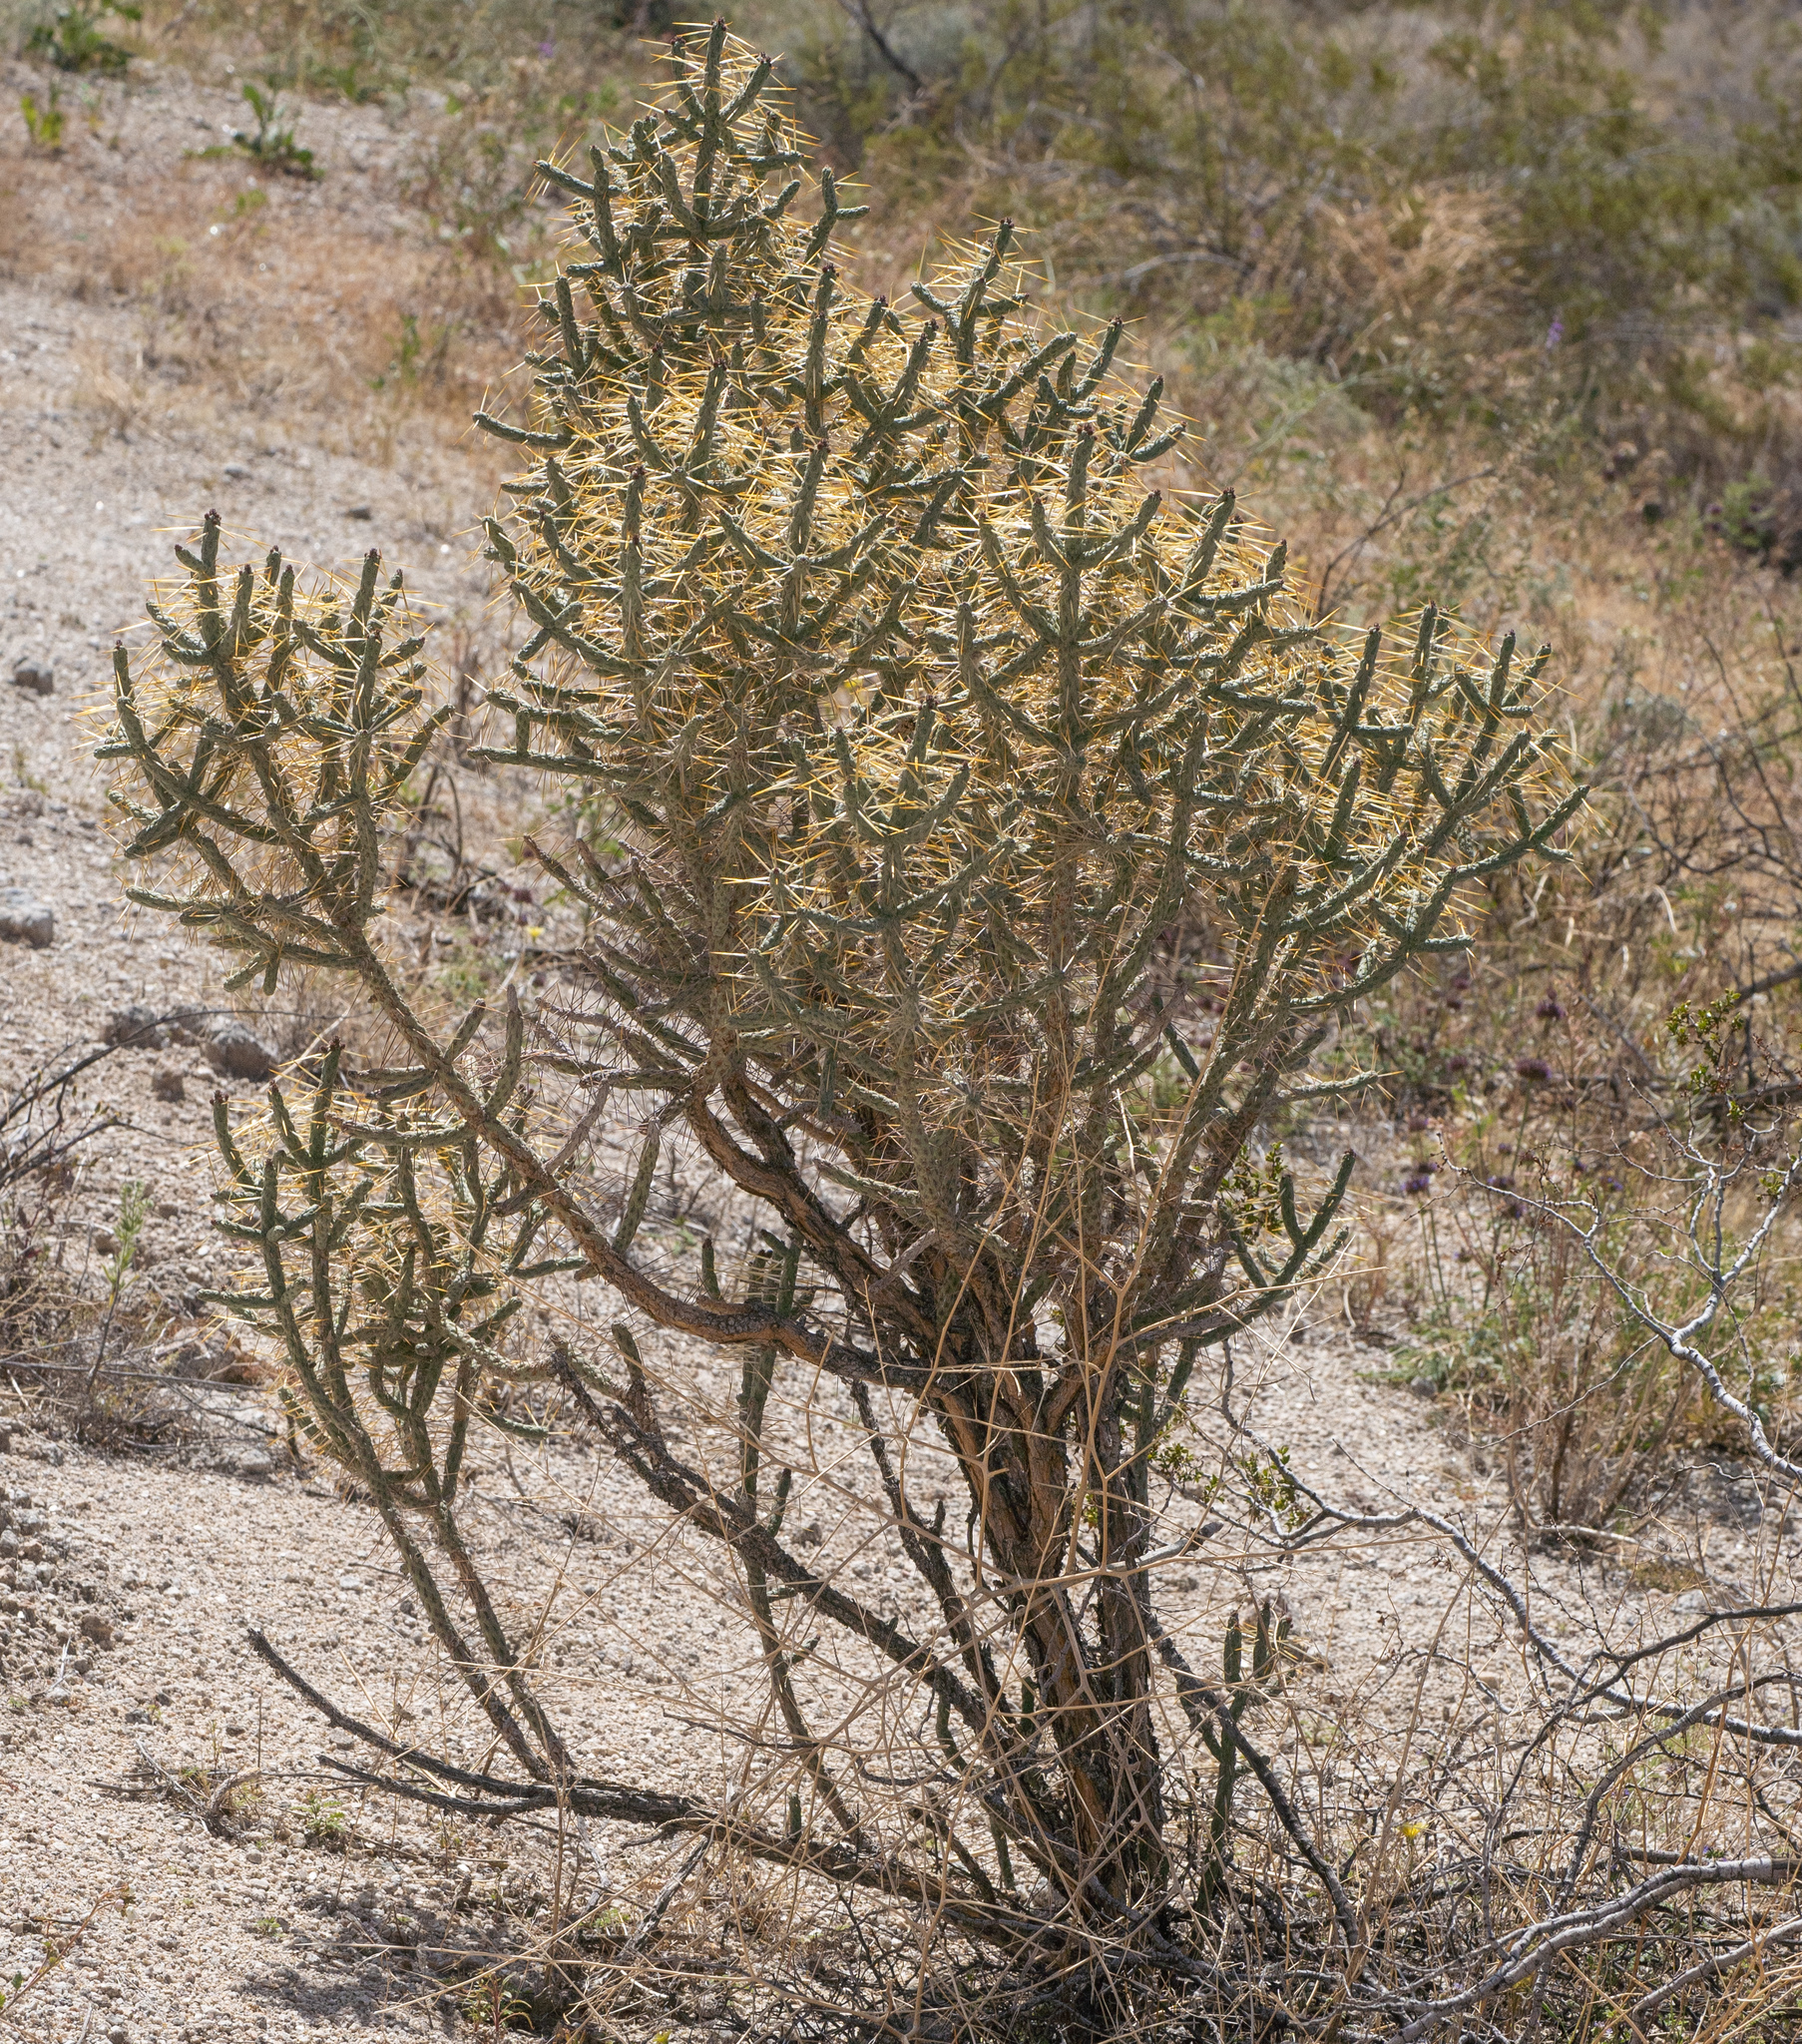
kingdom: Plantae
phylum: Tracheophyta
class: Magnoliopsida
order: Caryophyllales
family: Cactaceae
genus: Cylindropuntia
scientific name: Cylindropuntia ramosissima
